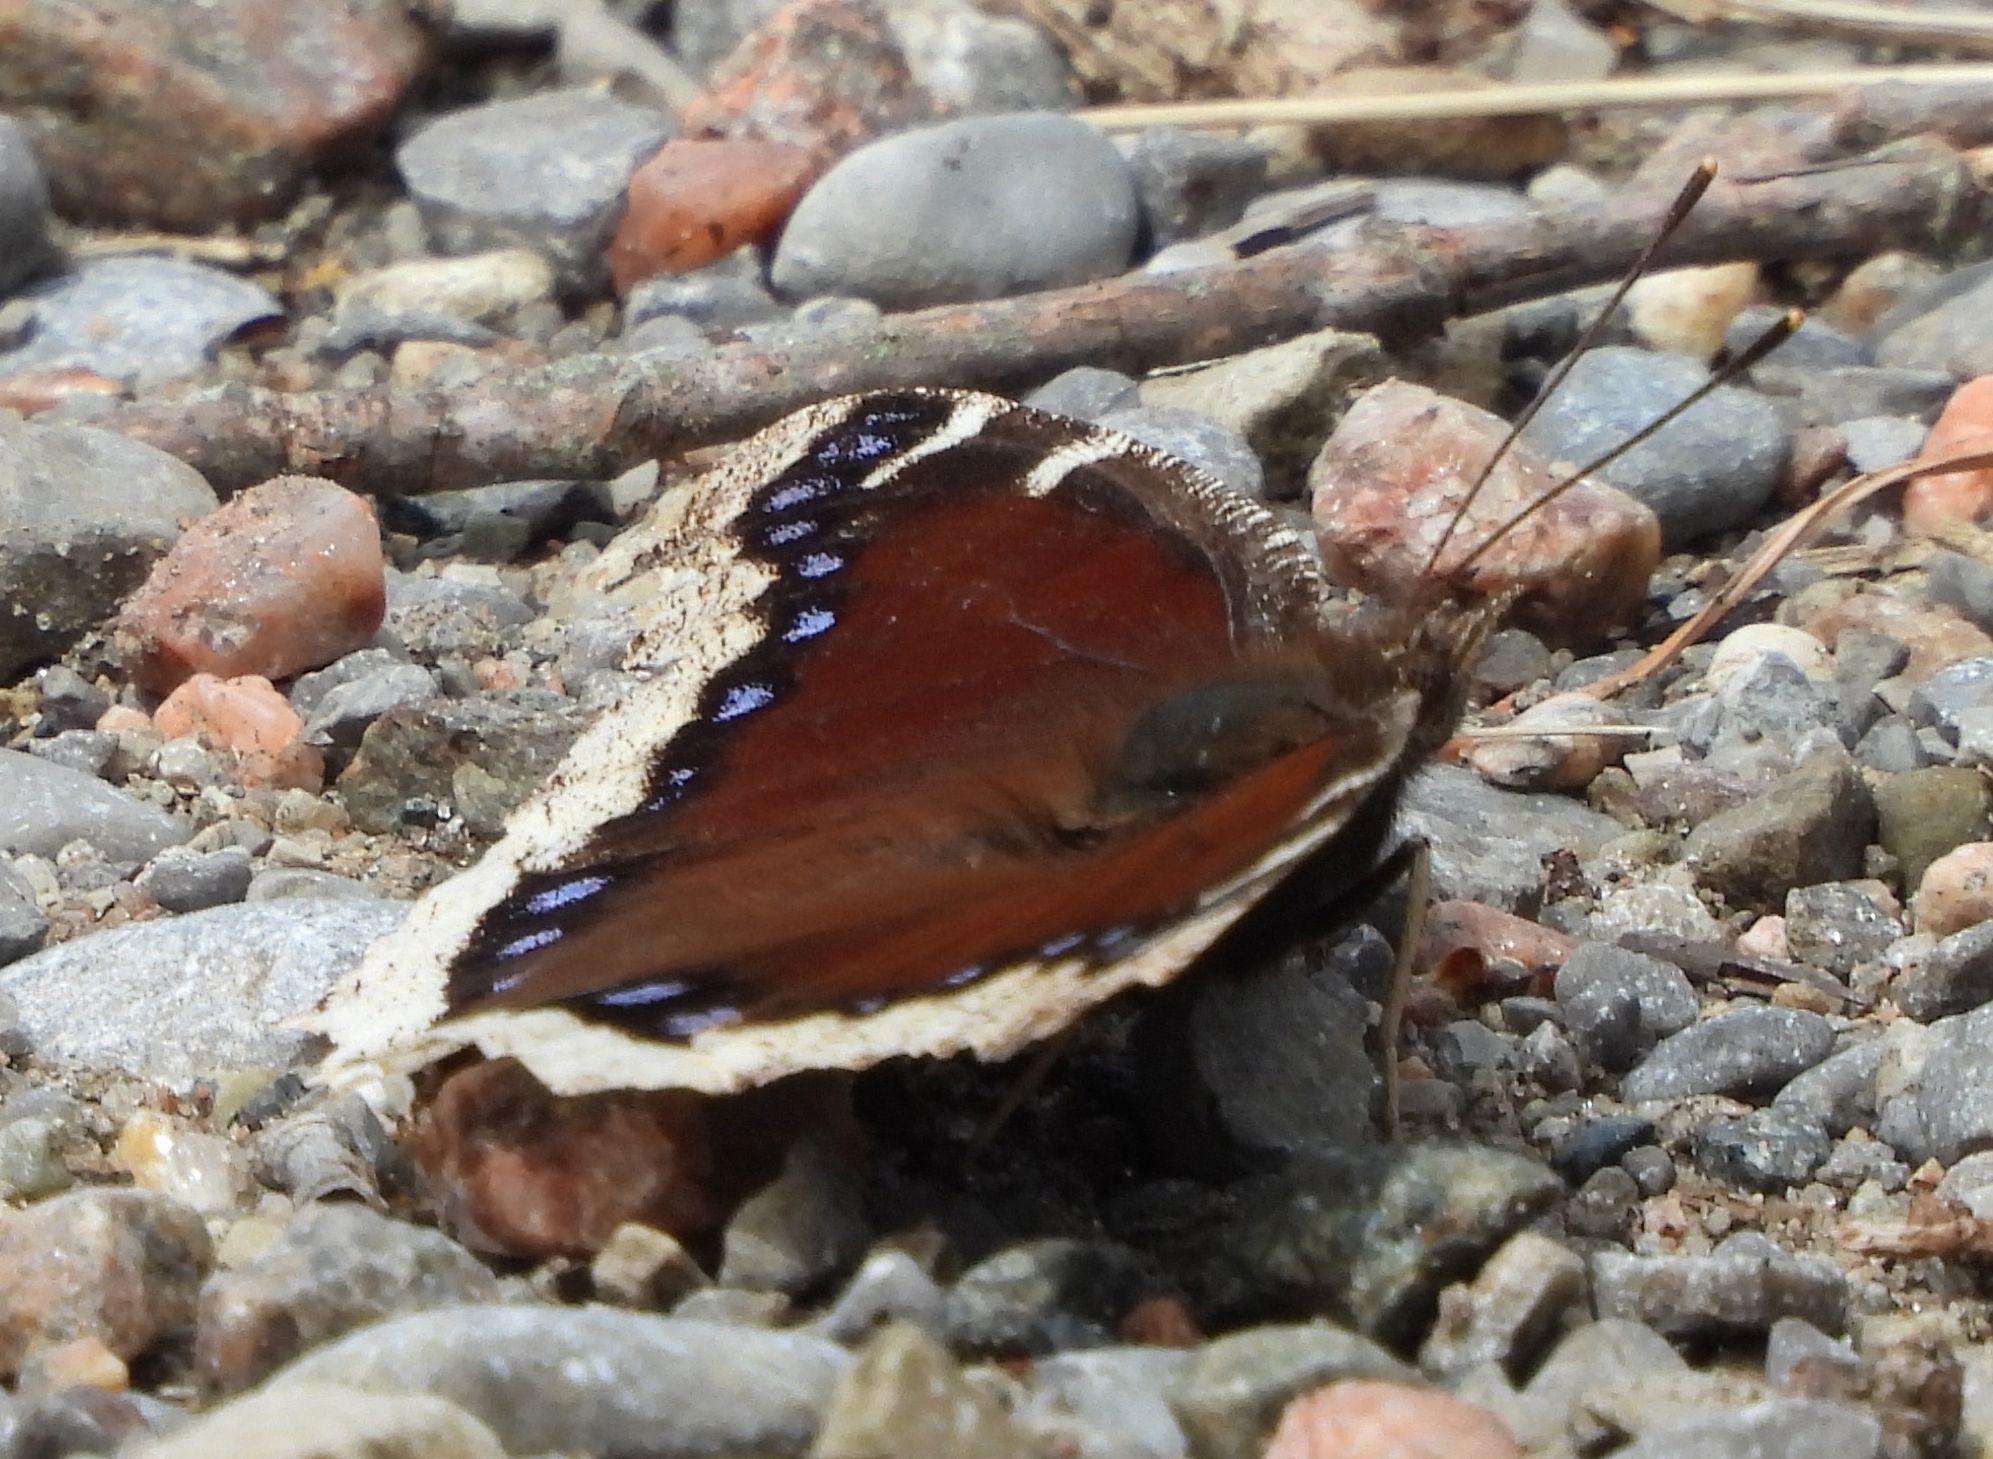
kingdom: Animalia
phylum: Arthropoda
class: Insecta
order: Lepidoptera
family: Nymphalidae
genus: Nymphalis
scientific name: Nymphalis antiopa
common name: Camberwell beauty
